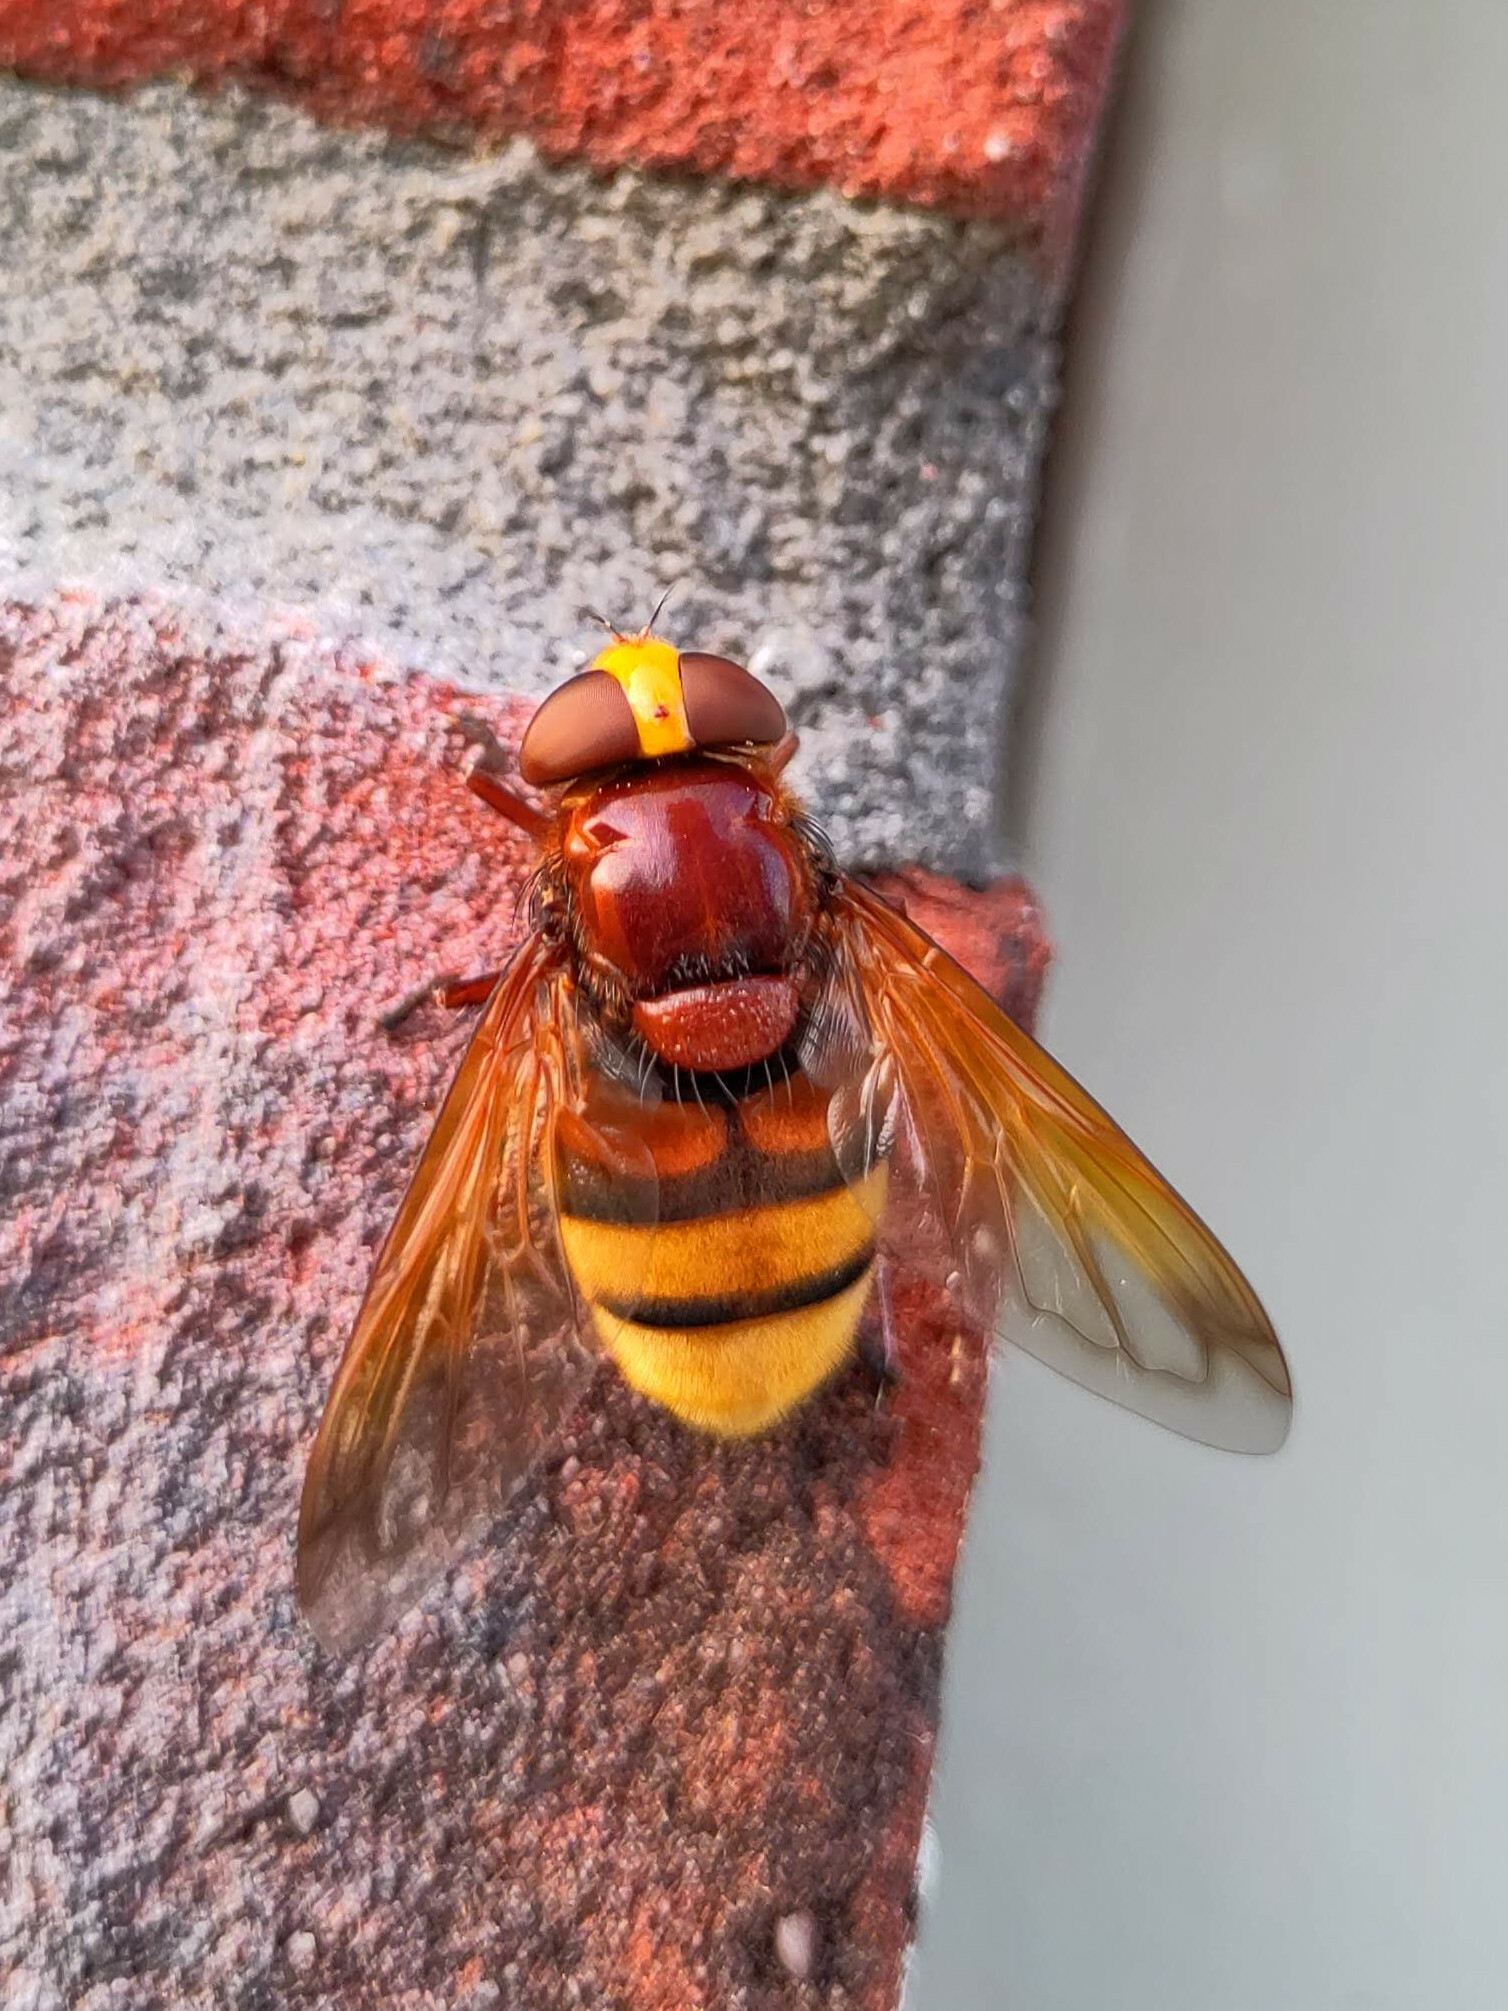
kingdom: Animalia
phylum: Arthropoda
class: Insecta
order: Diptera
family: Syrphidae
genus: Volucella
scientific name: Volucella zonaria
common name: Hornet hoverfly
